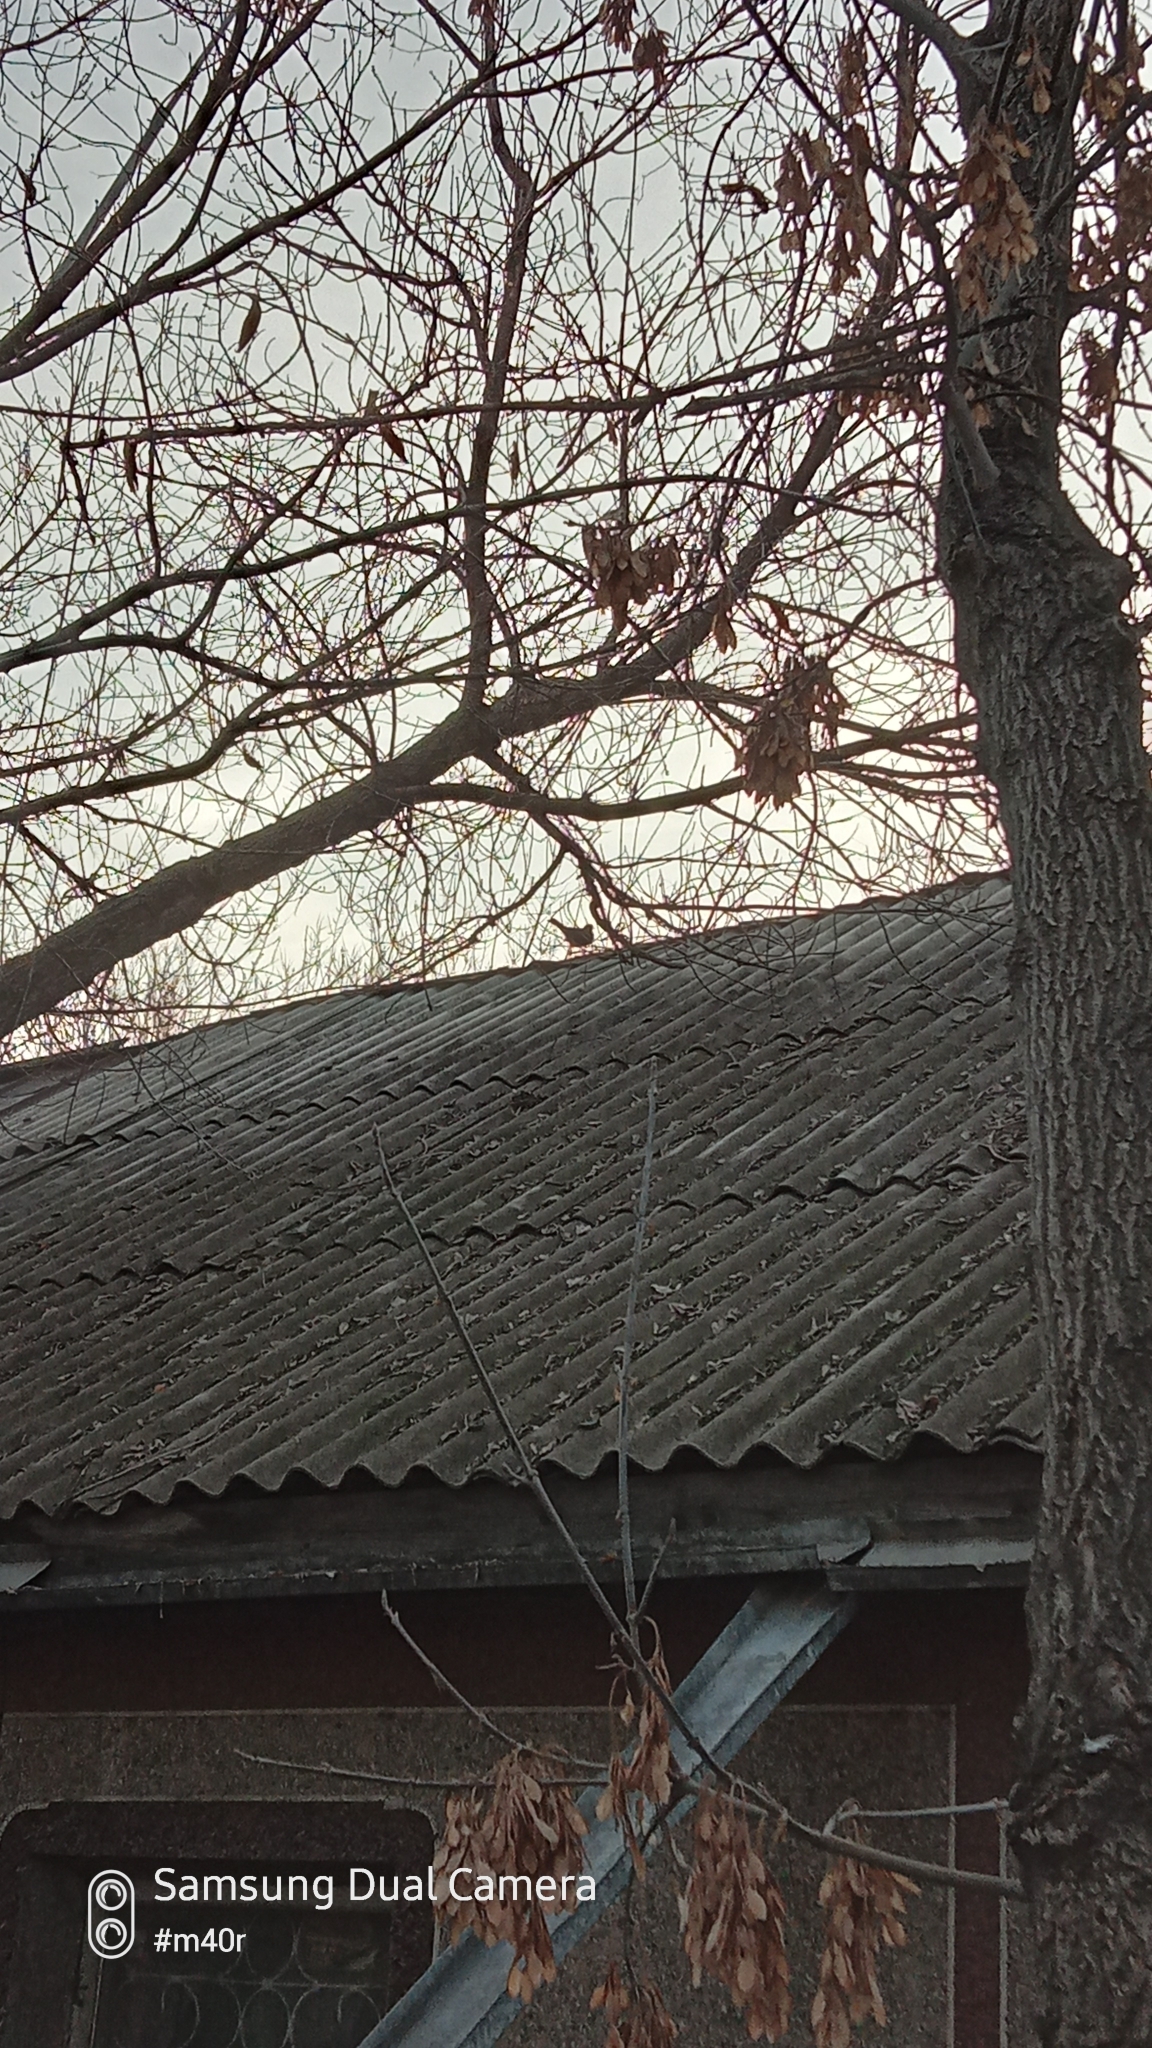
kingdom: Animalia
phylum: Chordata
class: Aves
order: Passeriformes
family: Turdidae
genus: Turdus
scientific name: Turdus merula
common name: Common blackbird
